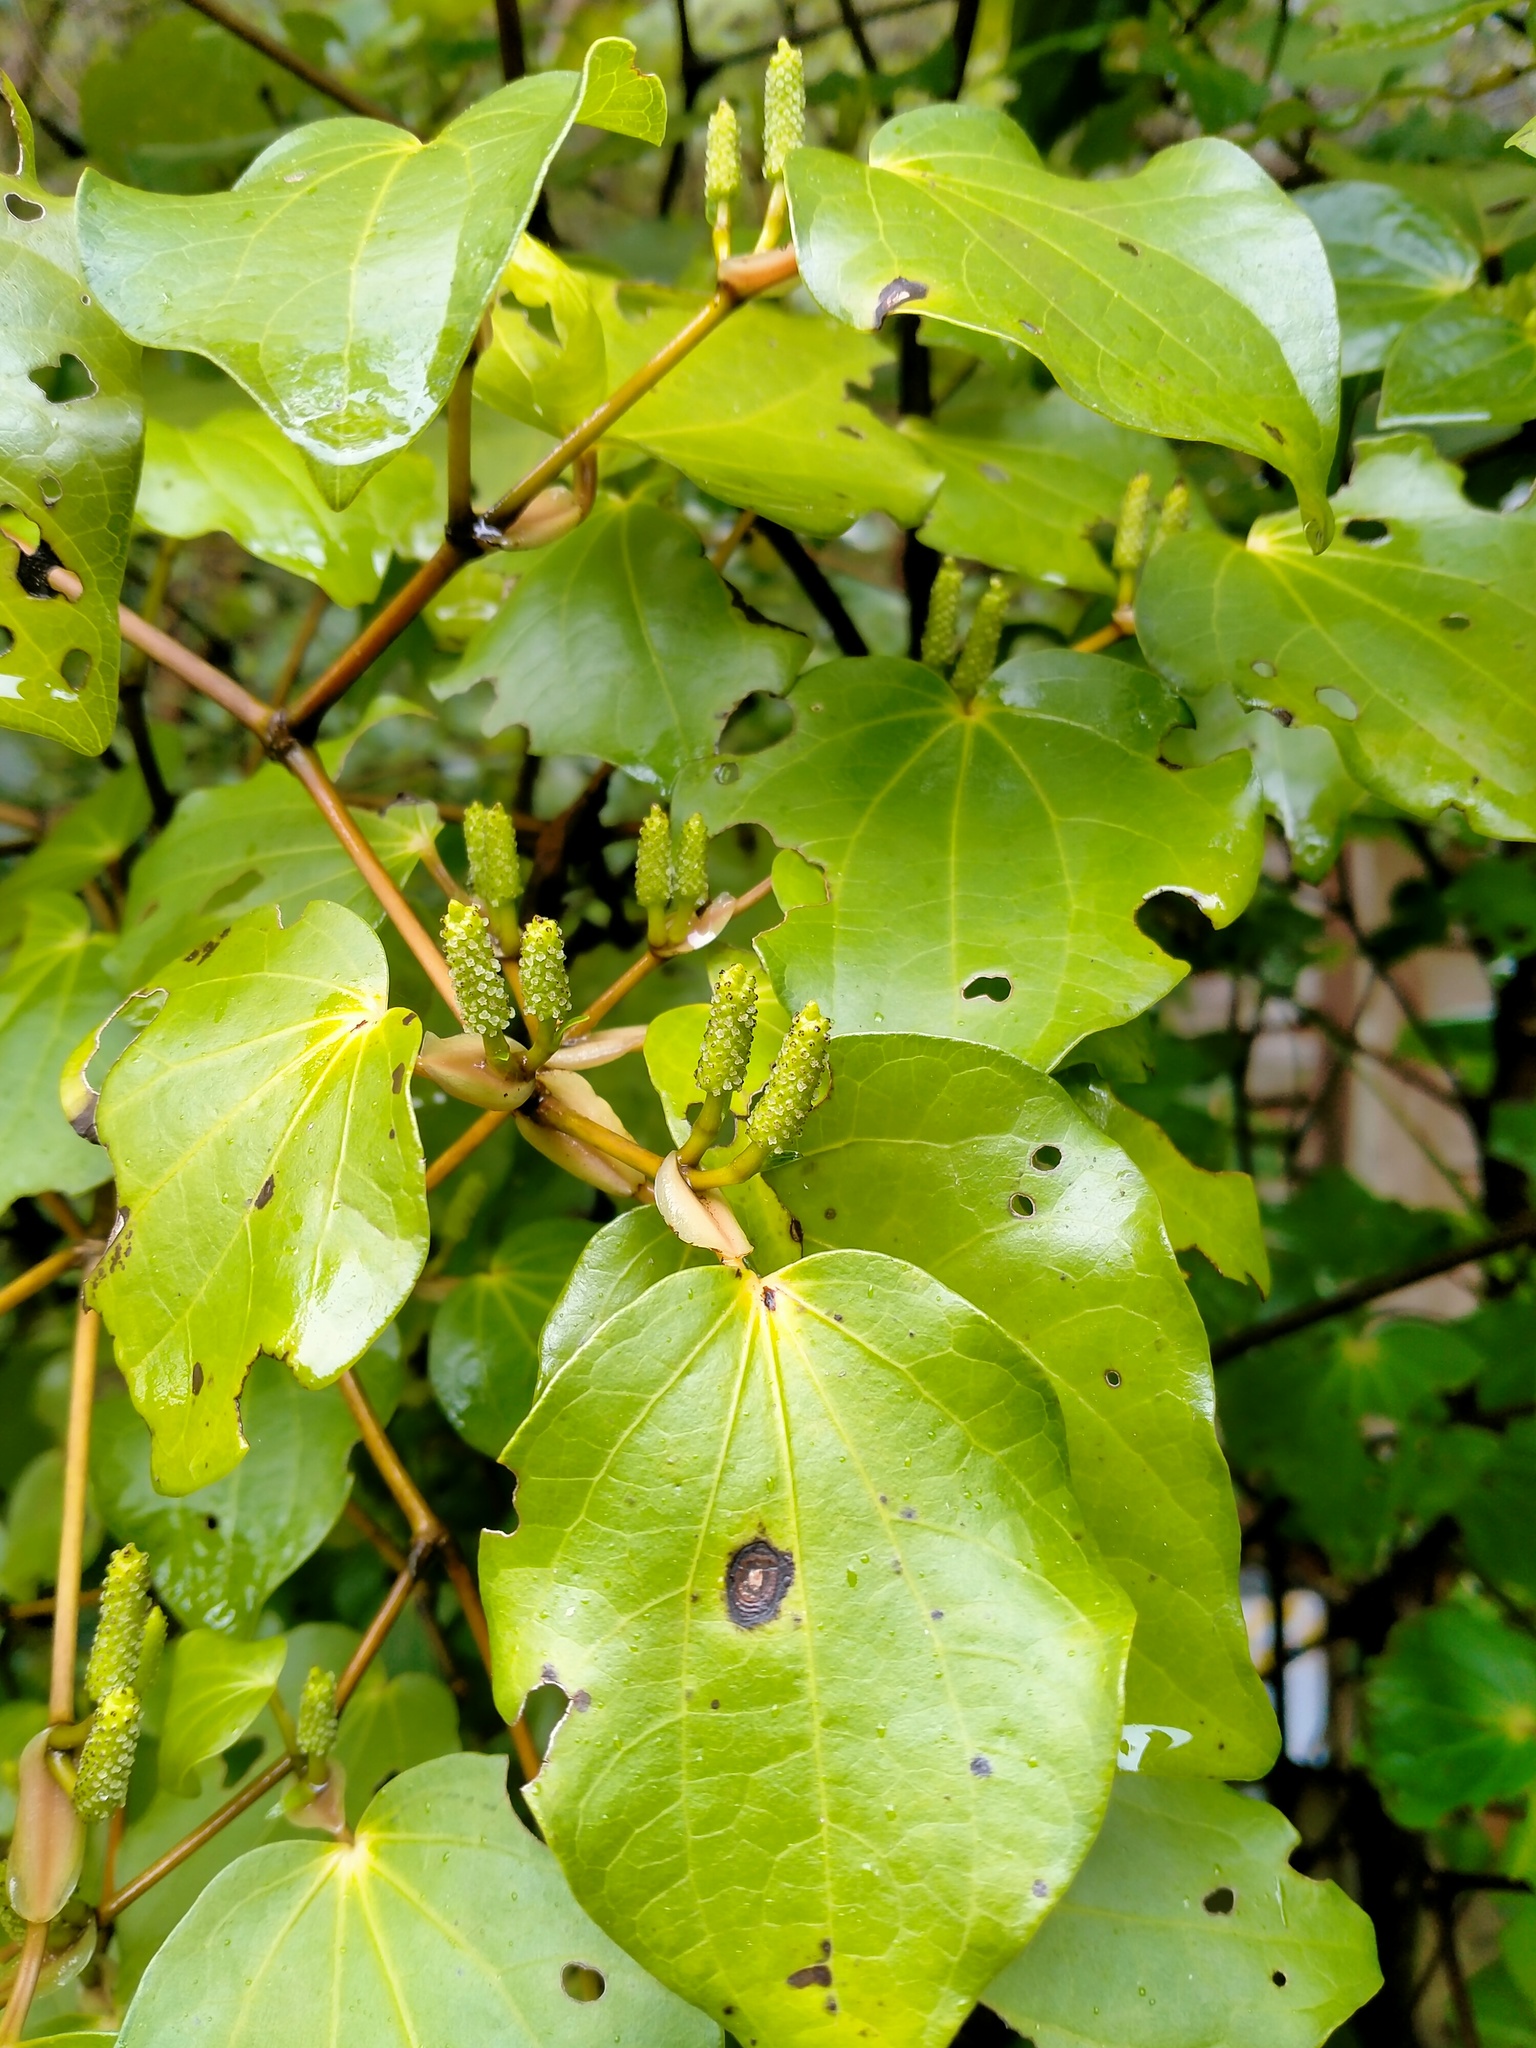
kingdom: Plantae
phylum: Tracheophyta
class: Magnoliopsida
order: Piperales
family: Piperaceae
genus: Macropiper
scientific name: Macropiper excelsum
